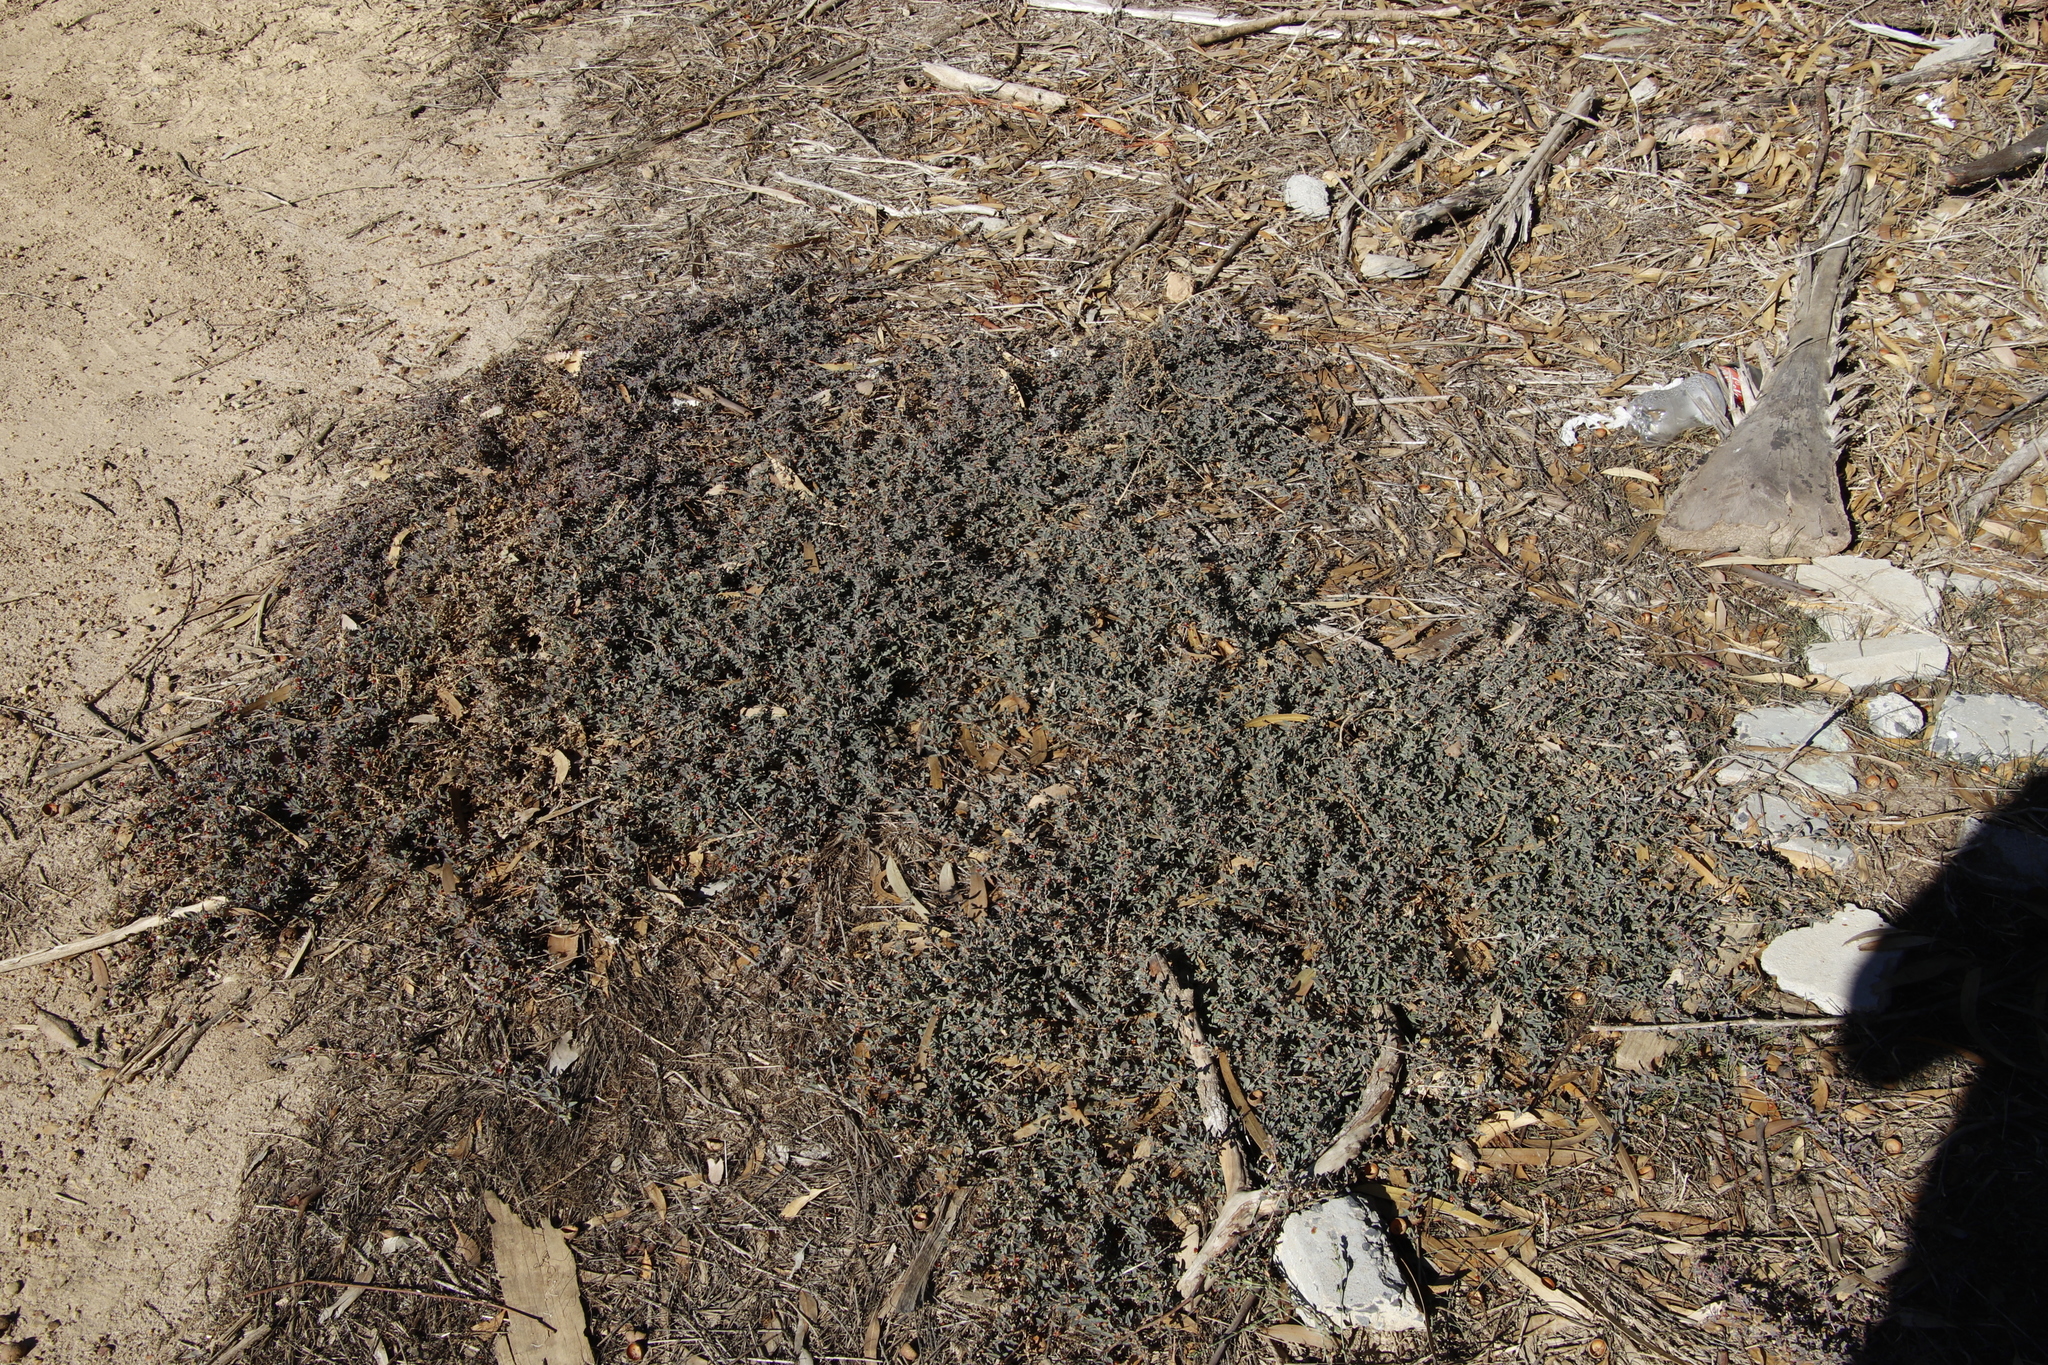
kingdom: Plantae
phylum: Tracheophyta
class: Magnoliopsida
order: Caryophyllales
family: Amaranthaceae
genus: Atriplex
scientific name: Atriplex semibaccata
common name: Australian saltbush
